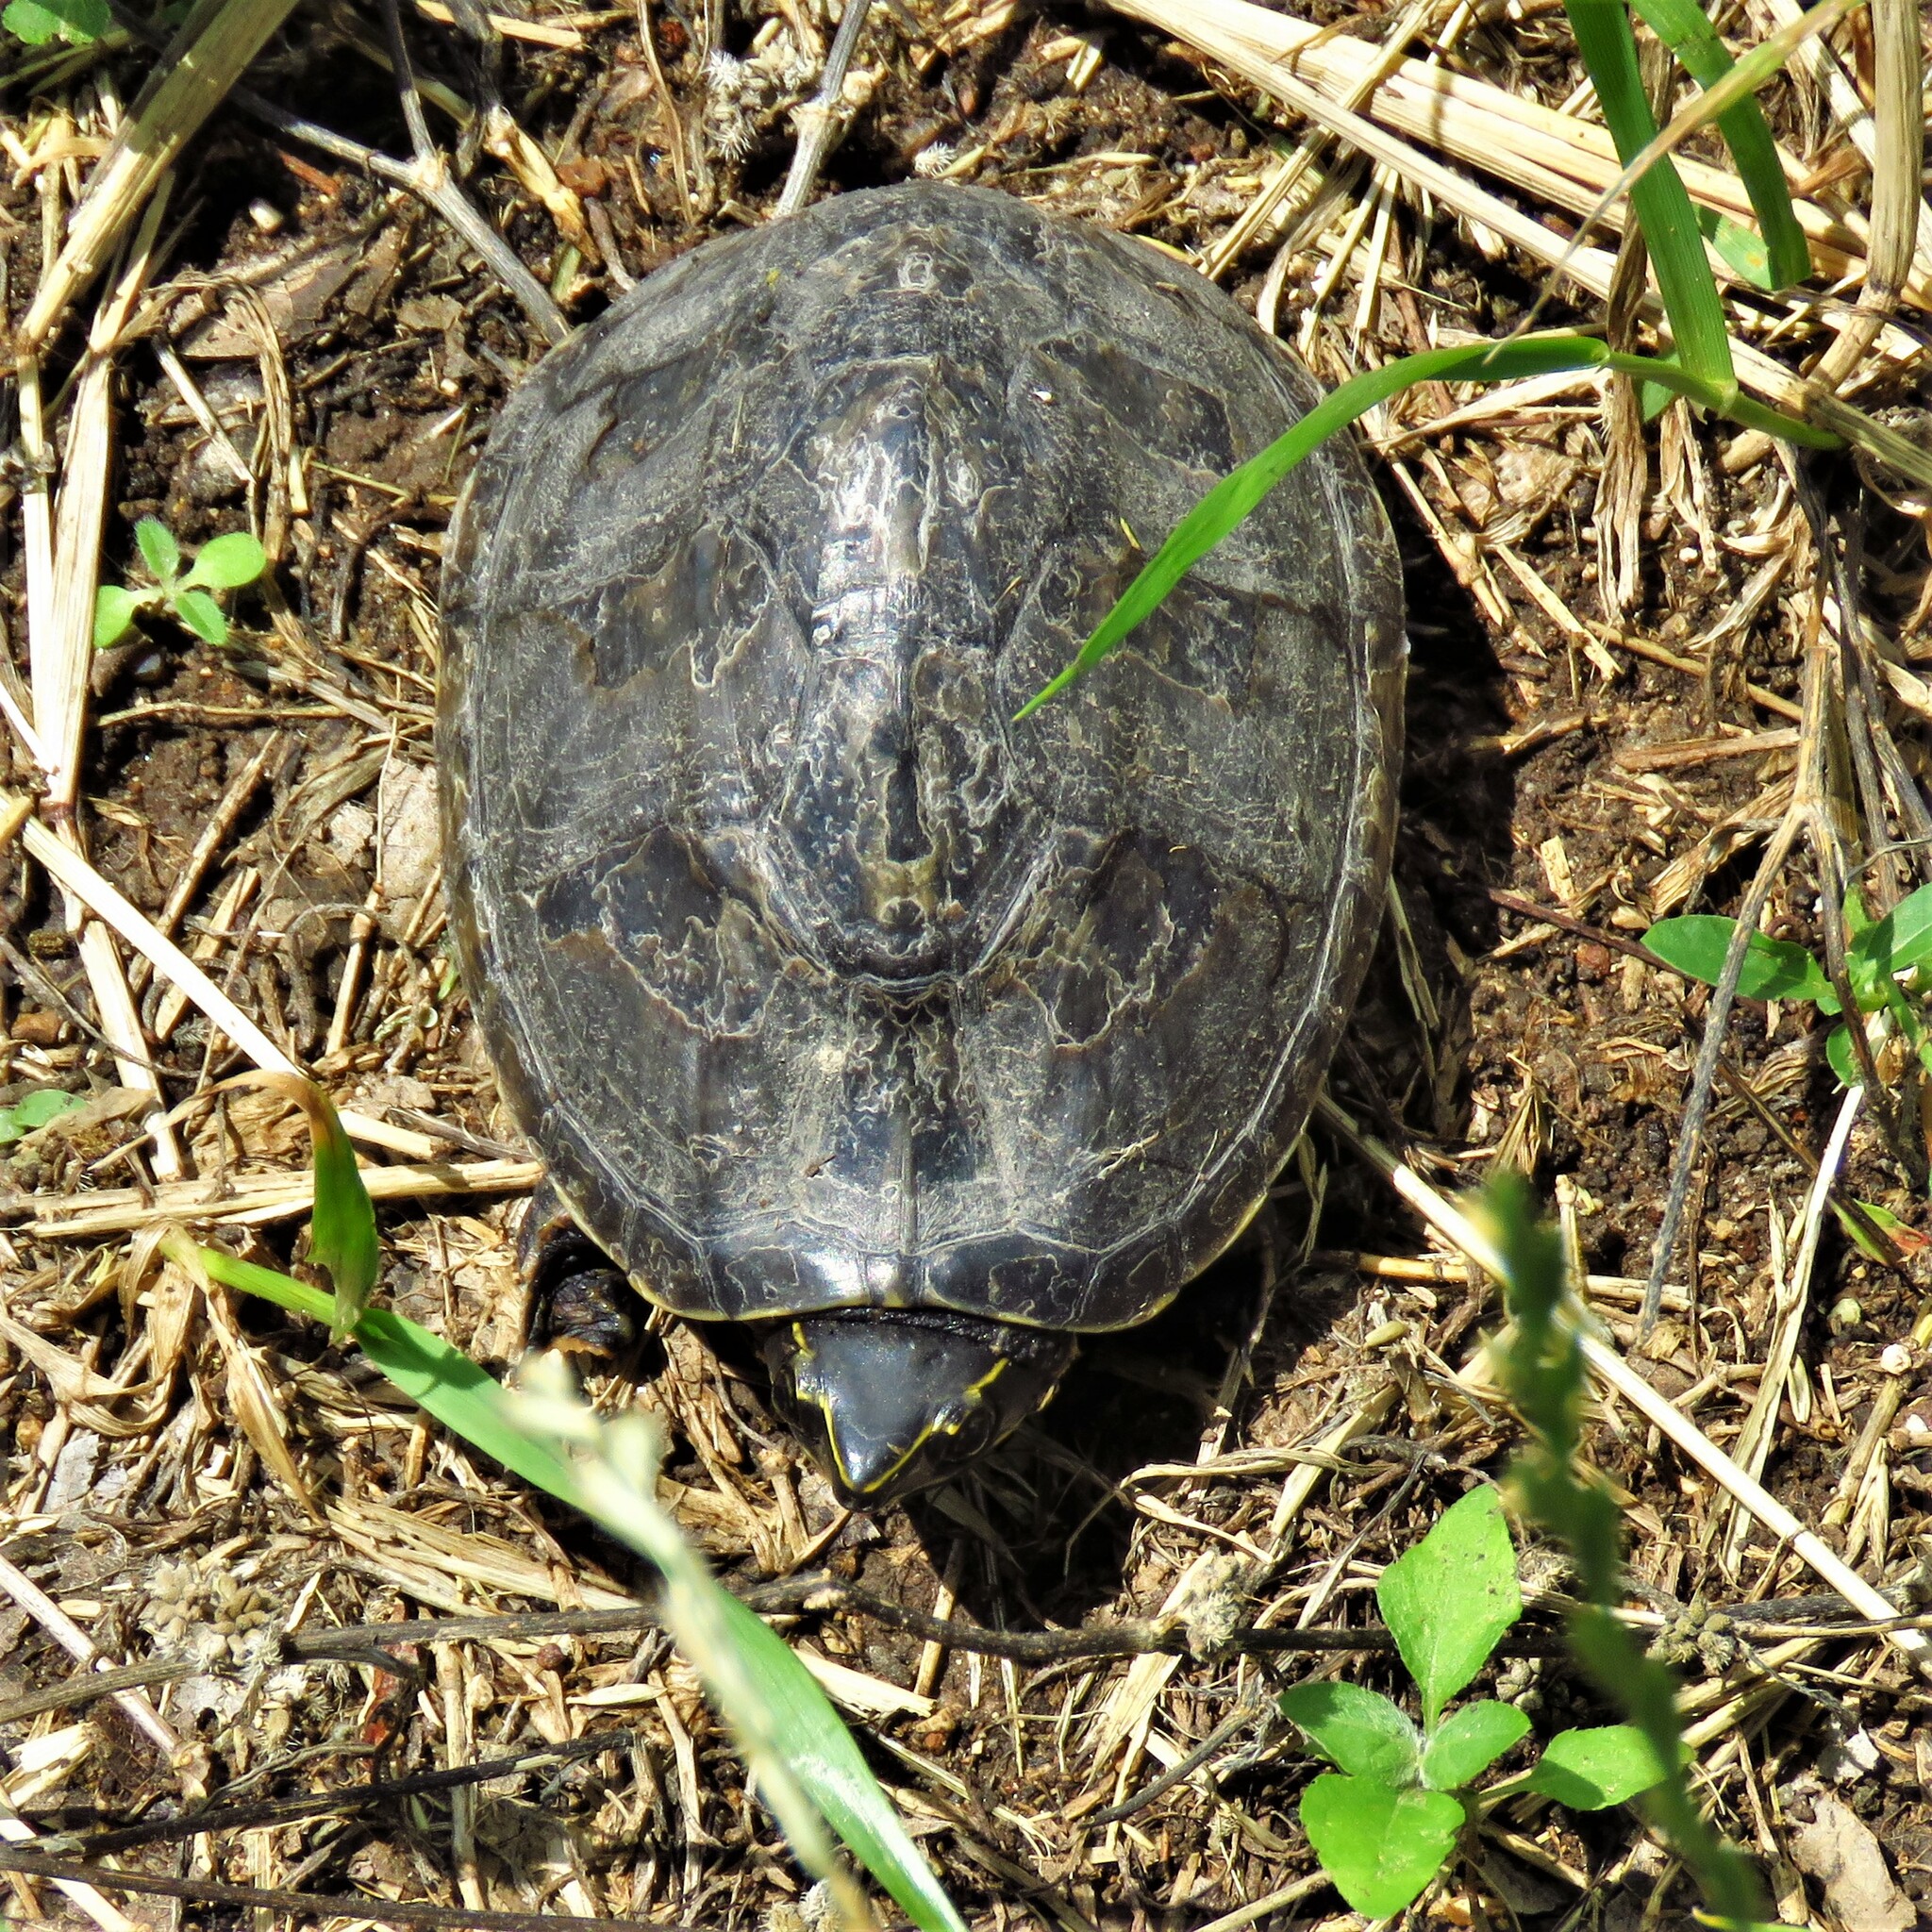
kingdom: Animalia
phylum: Chordata
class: Testudines
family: Kinosternidae
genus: Sternotherus
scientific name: Sternotherus odoratus
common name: Common musk turtle
